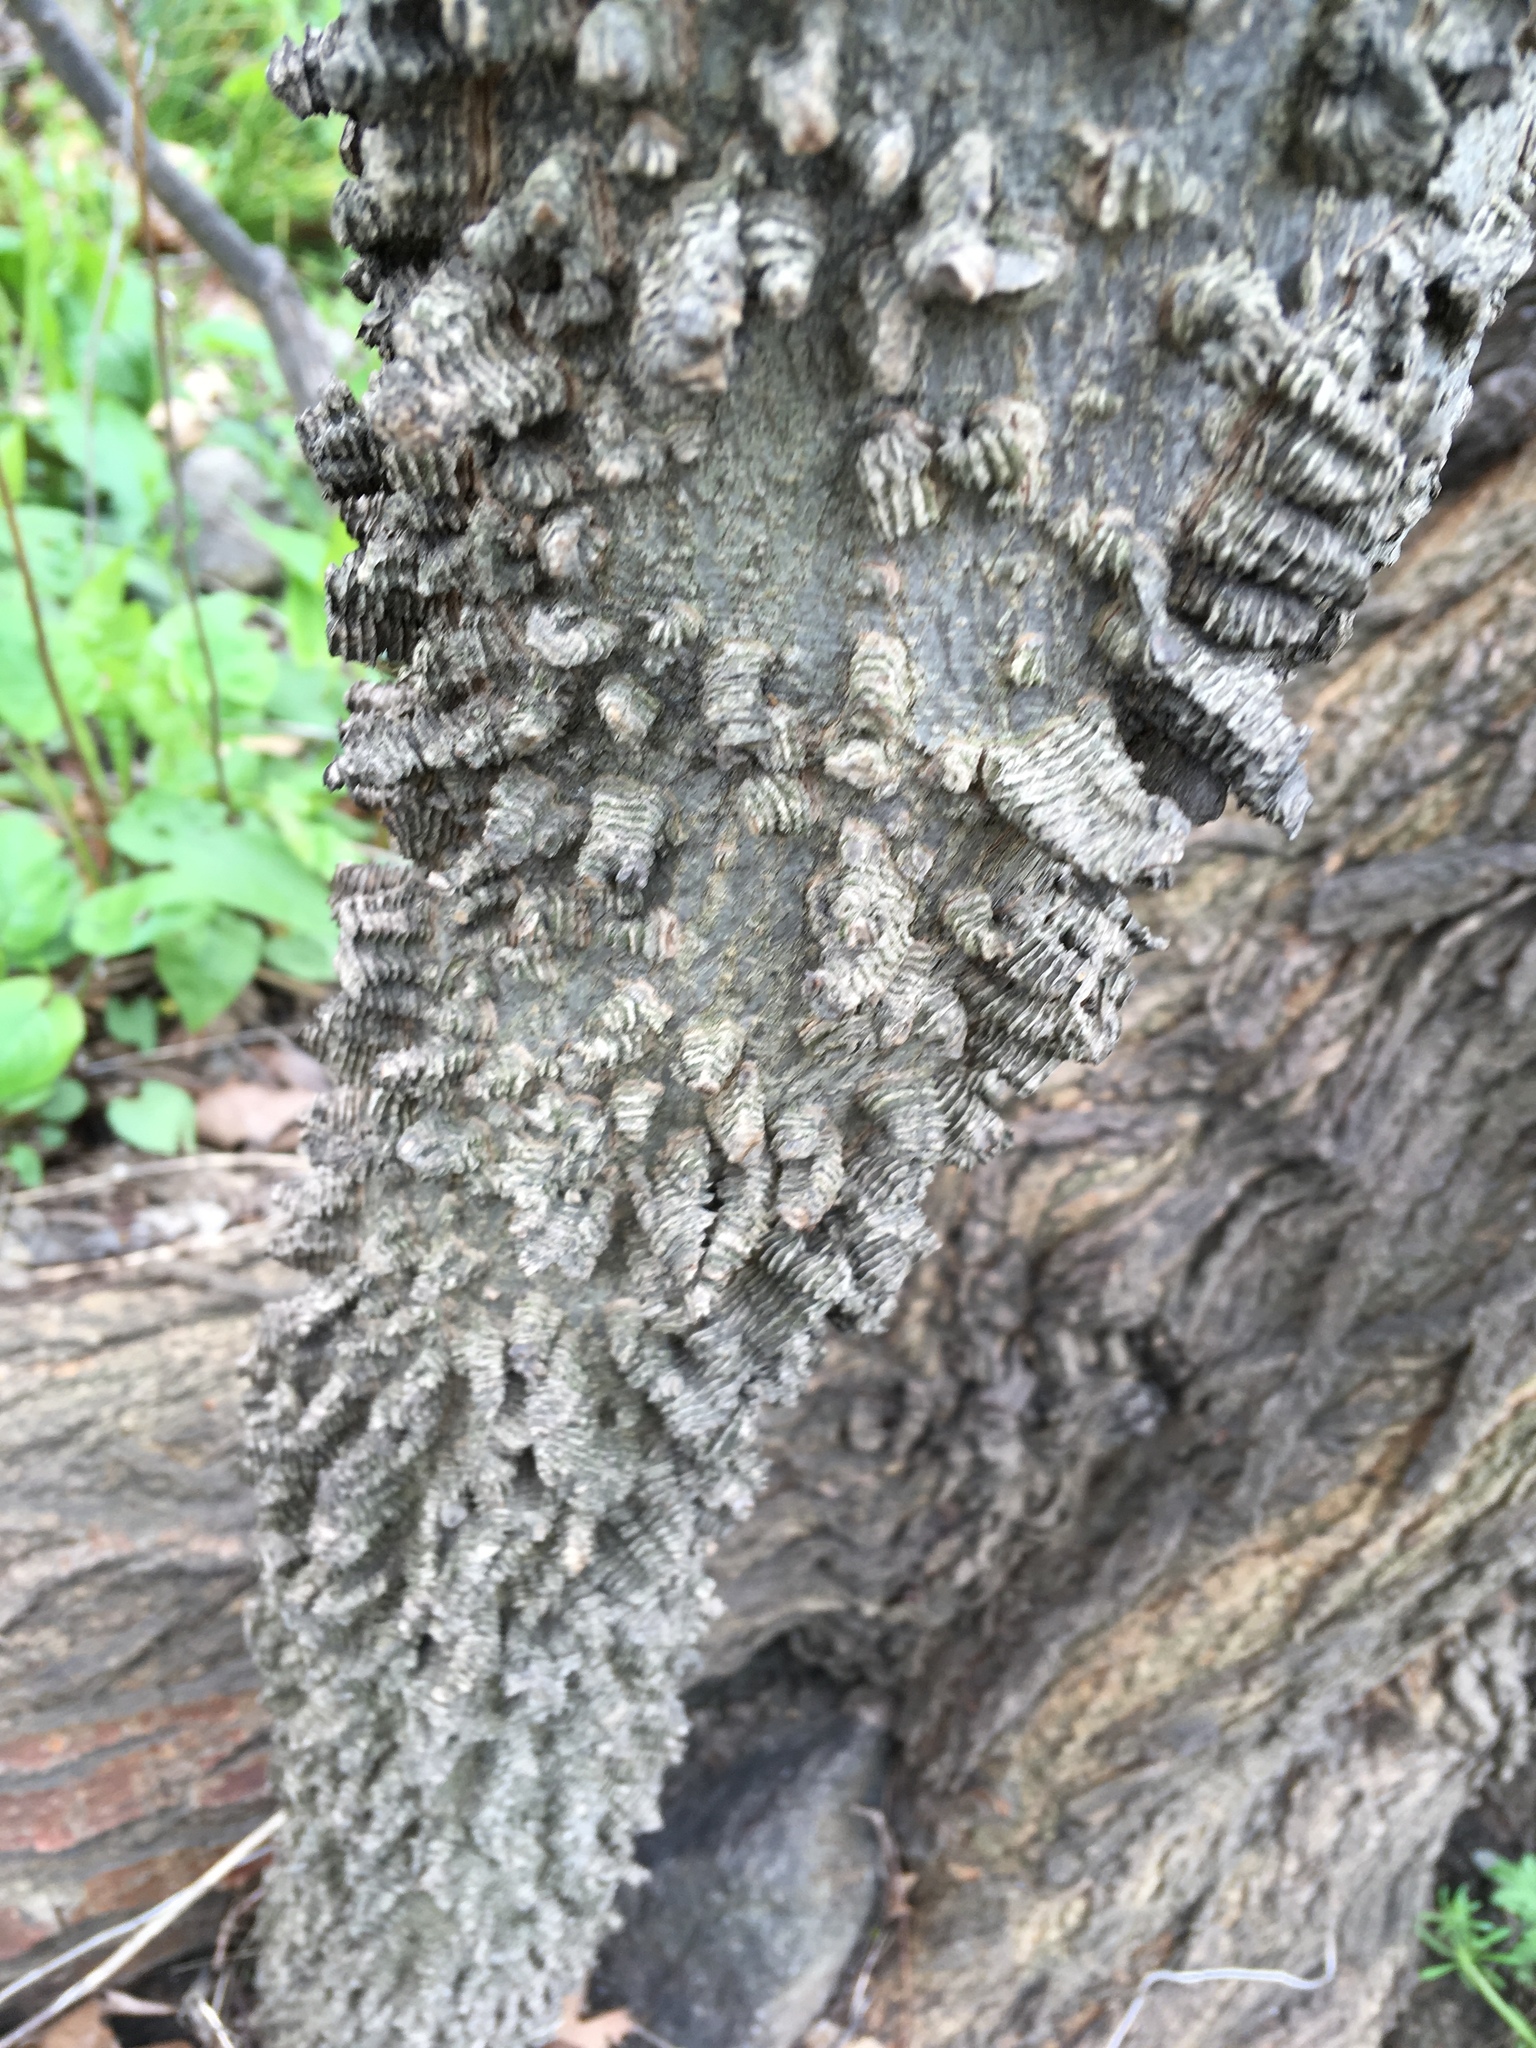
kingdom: Plantae
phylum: Tracheophyta
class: Magnoliopsida
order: Rosales
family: Cannabaceae
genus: Celtis
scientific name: Celtis occidentalis
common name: Common hackberry
